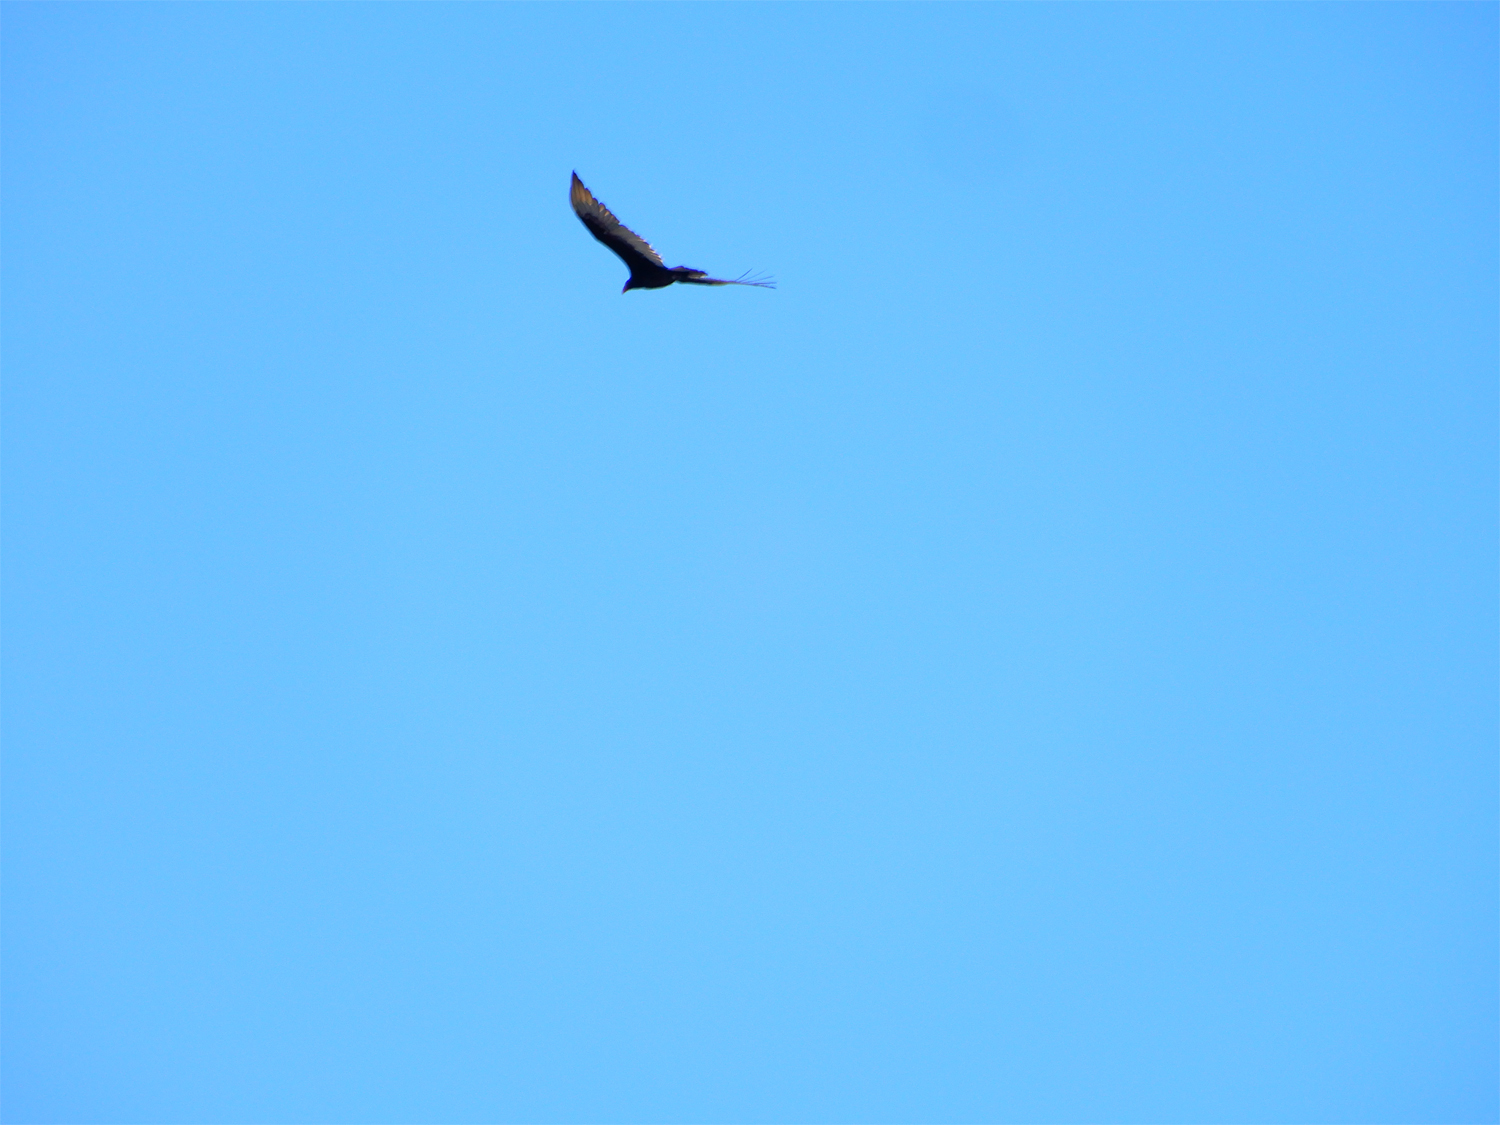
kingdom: Animalia
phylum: Chordata
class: Aves
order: Accipitriformes
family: Cathartidae
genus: Cathartes
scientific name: Cathartes aura
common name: Turkey vulture
